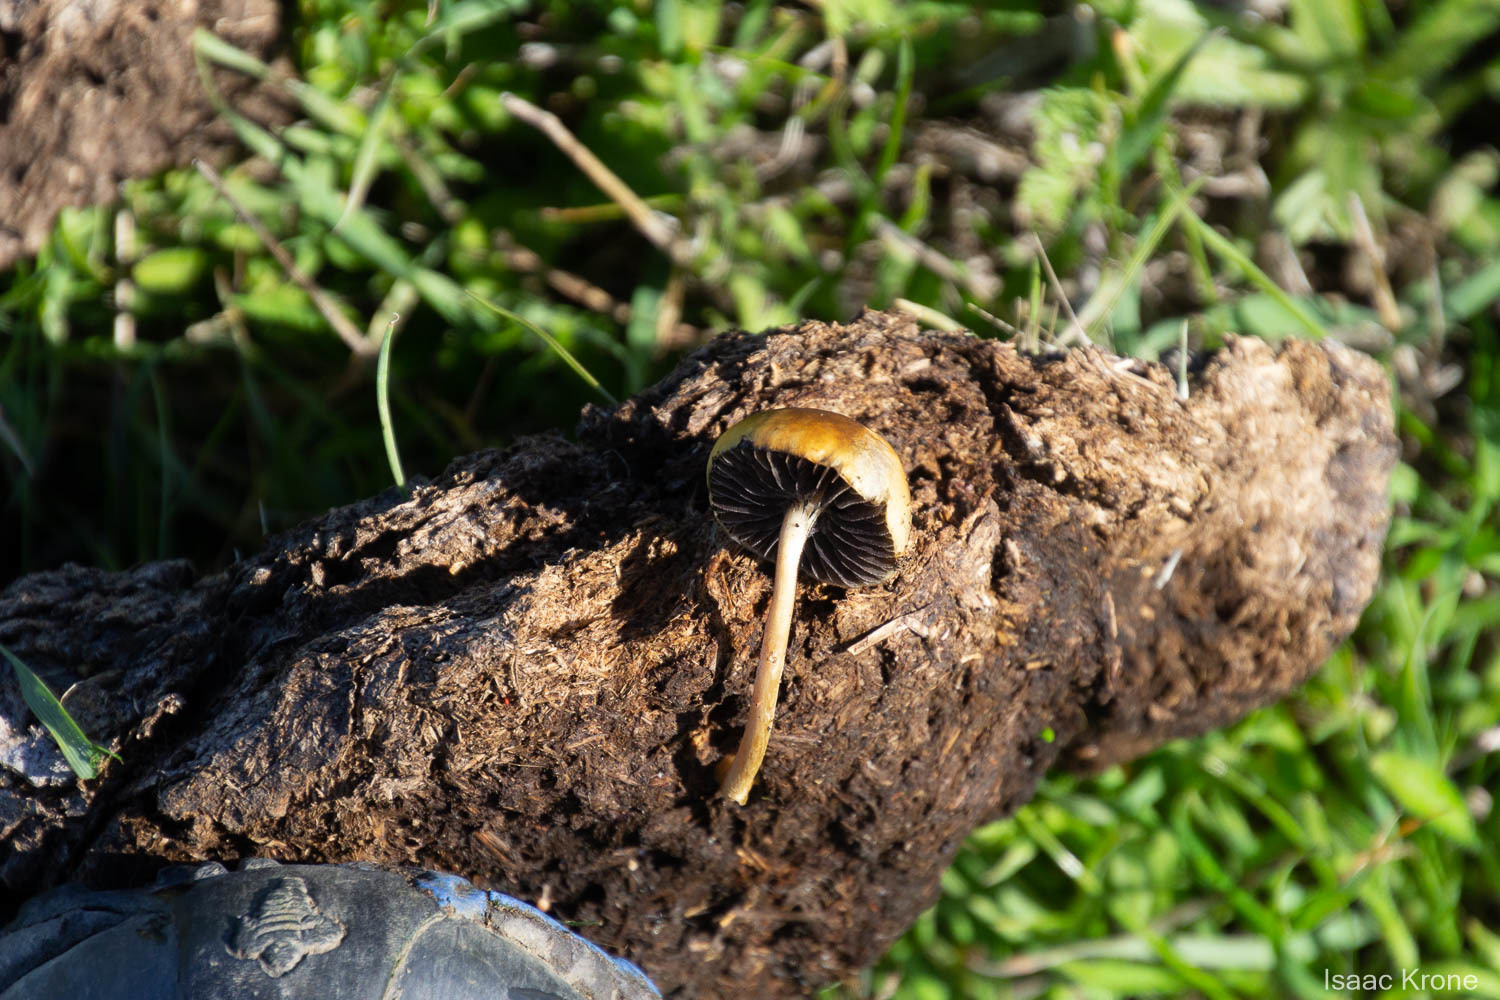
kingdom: Fungi
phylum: Basidiomycota
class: Agaricomycetes
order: Agaricales
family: Strophariaceae
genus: Deconica
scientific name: Deconica coprophila
